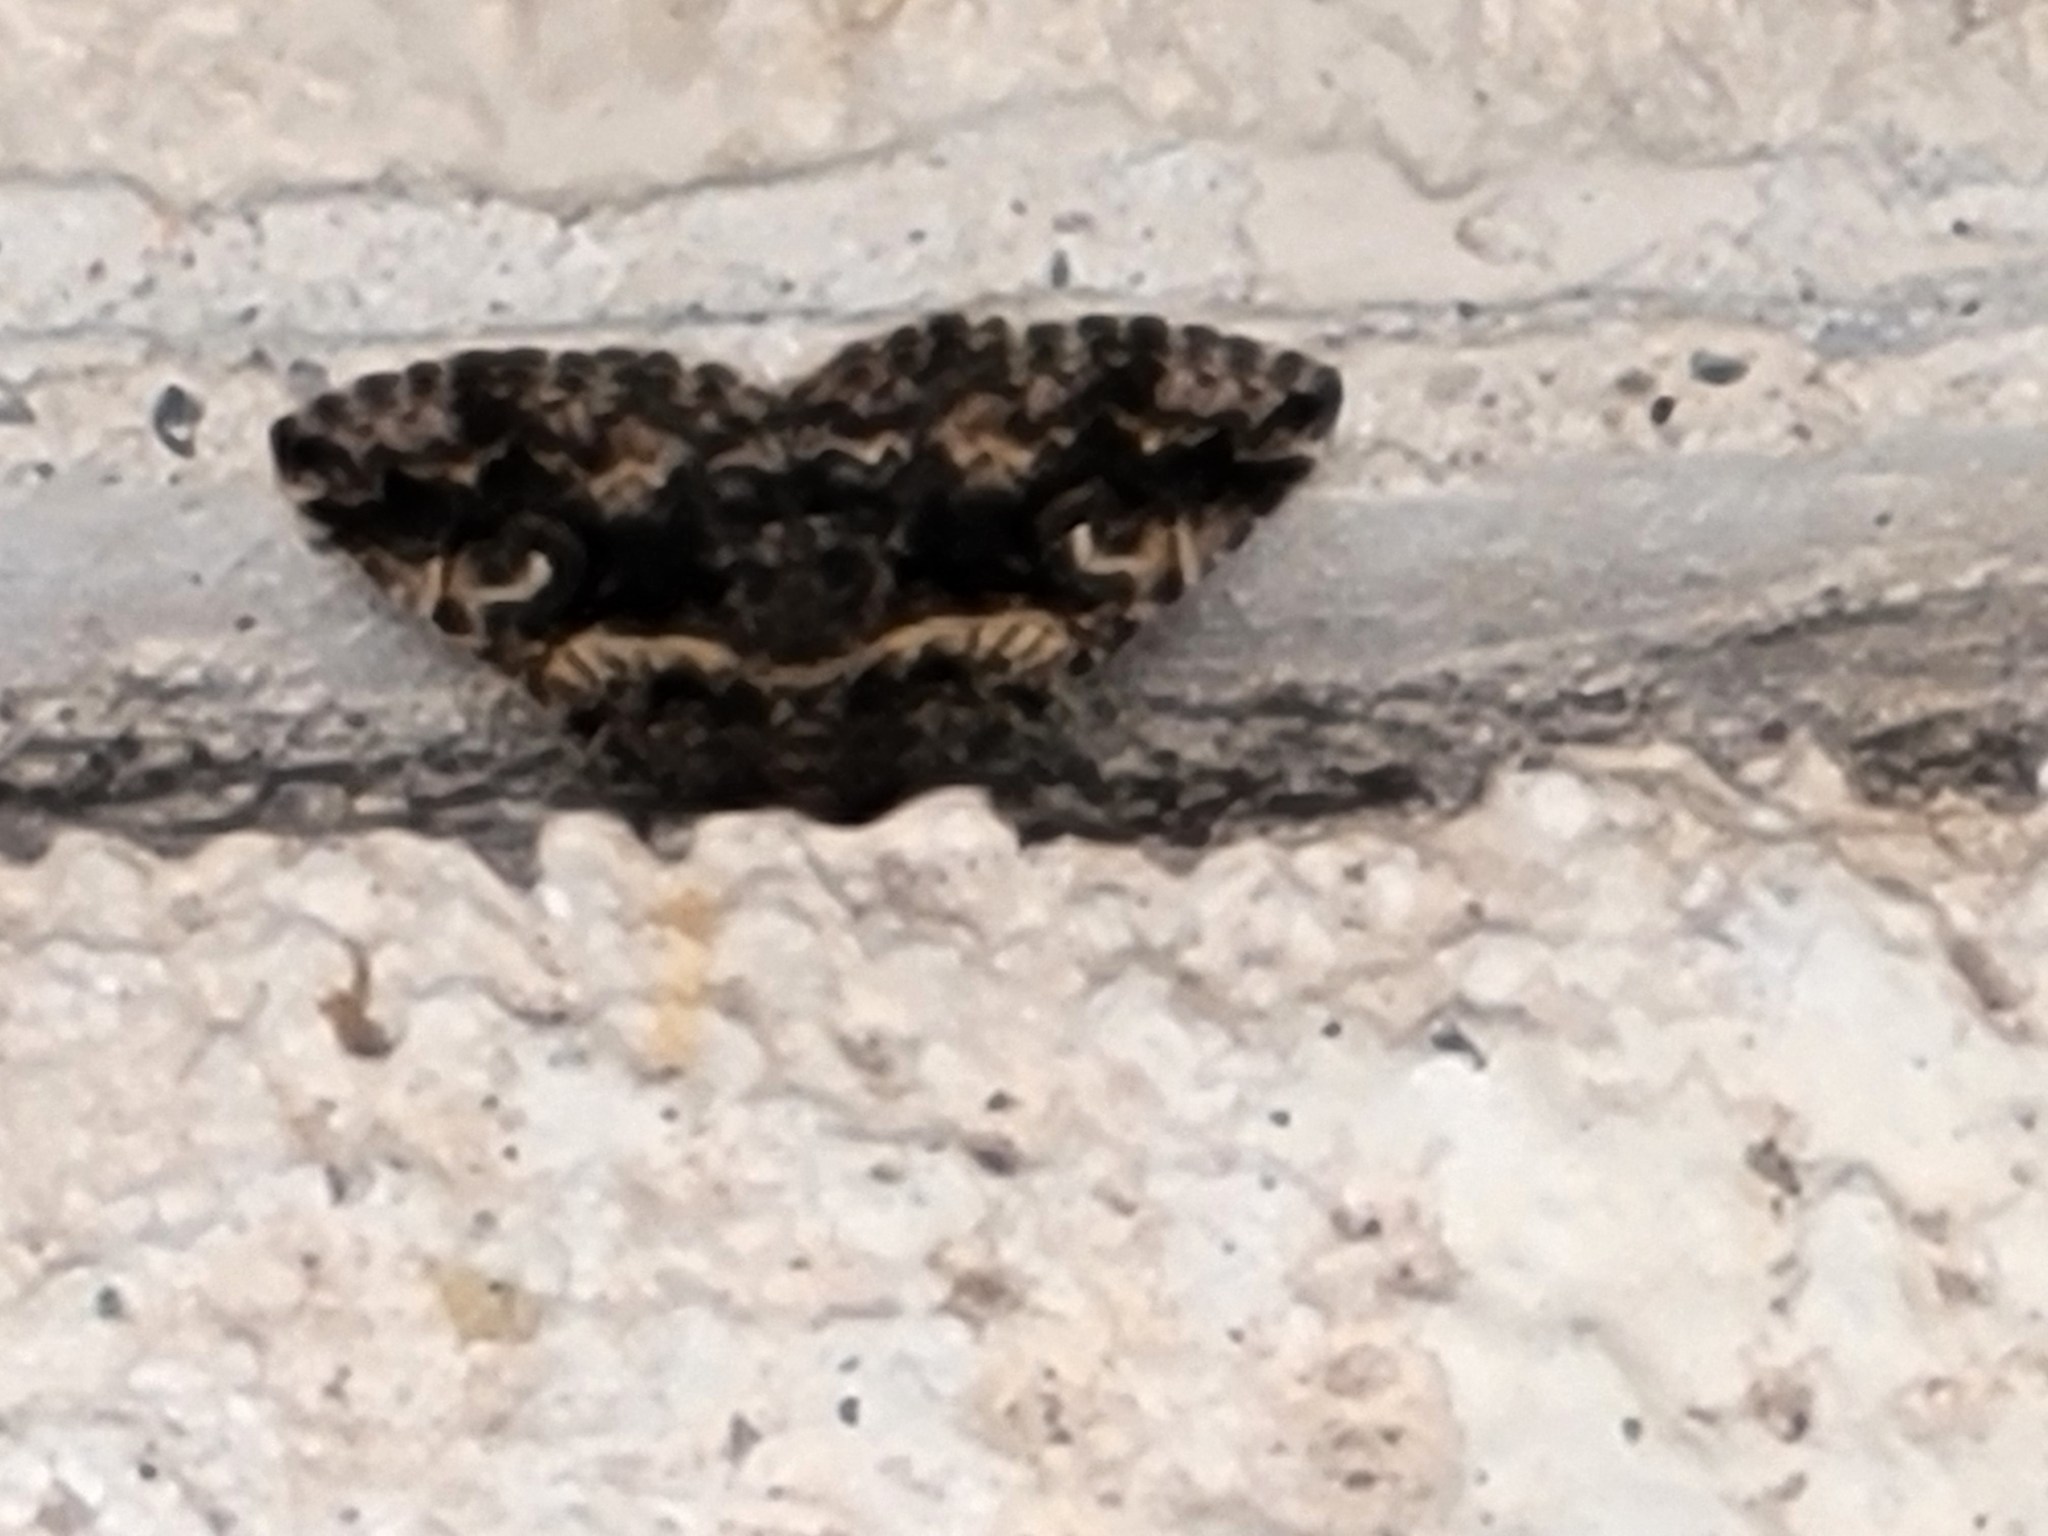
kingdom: Animalia
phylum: Arthropoda
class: Insecta
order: Lepidoptera
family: Erebidae
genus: Zaleops
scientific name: Zaleops umbrina
